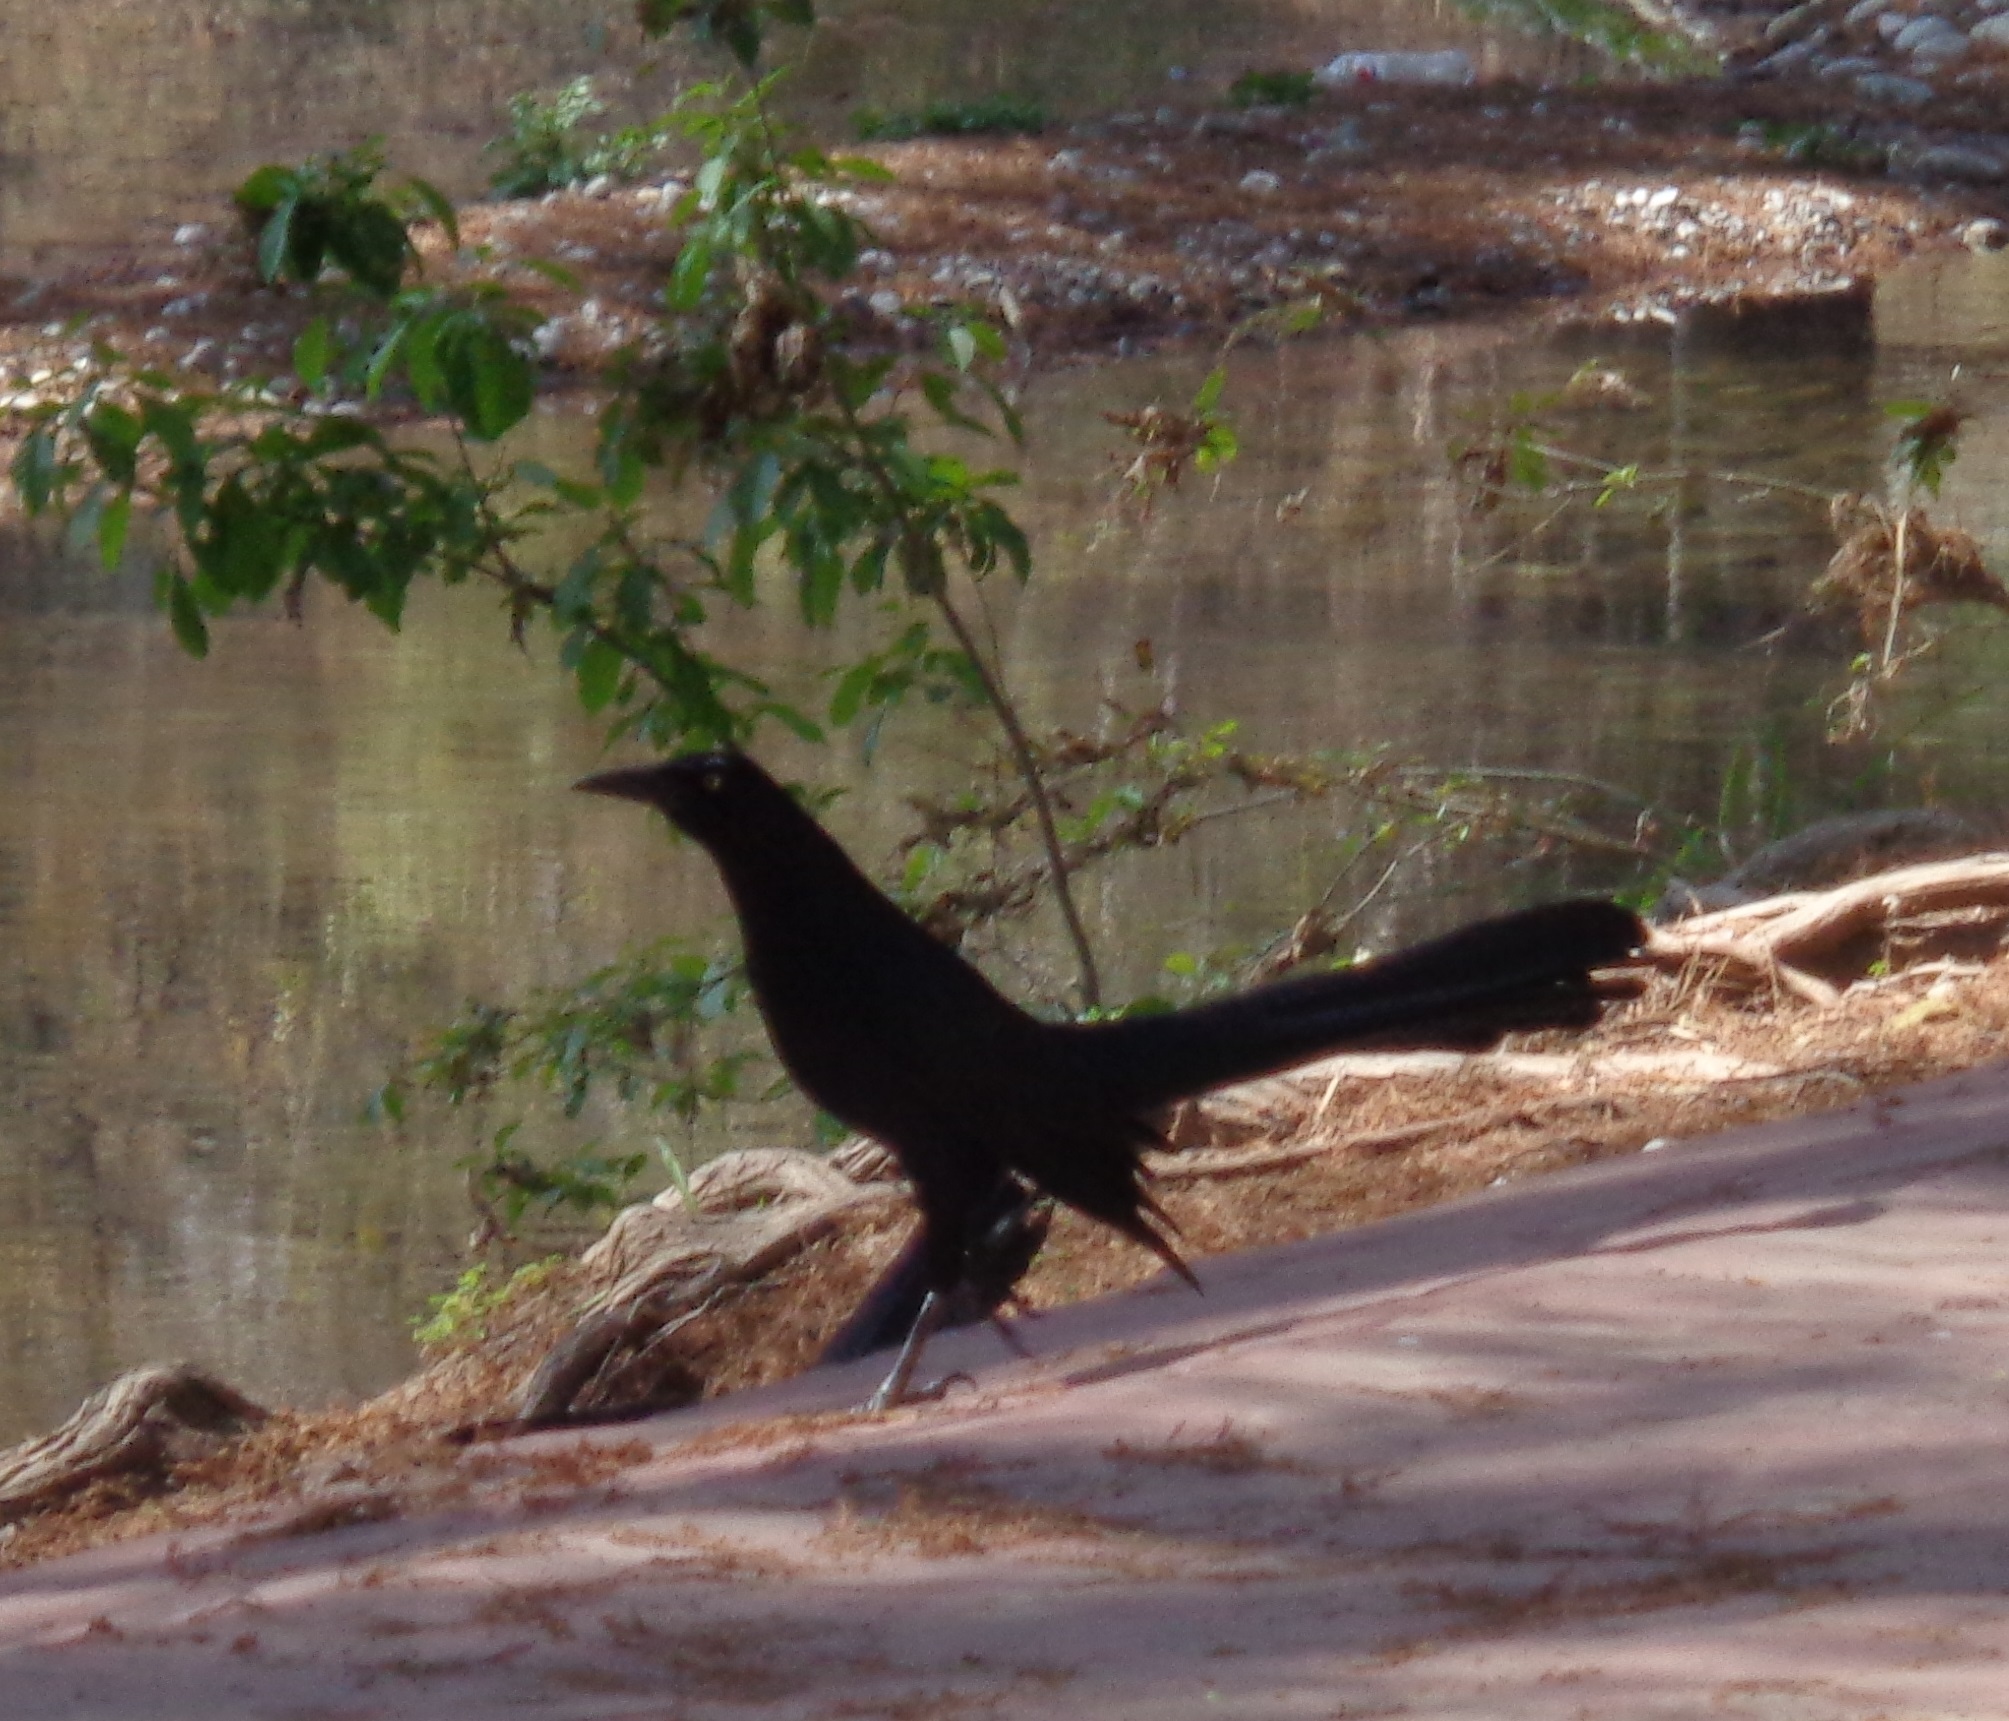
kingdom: Animalia
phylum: Chordata
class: Aves
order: Passeriformes
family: Icteridae
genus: Quiscalus
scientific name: Quiscalus mexicanus
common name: Great-tailed grackle
